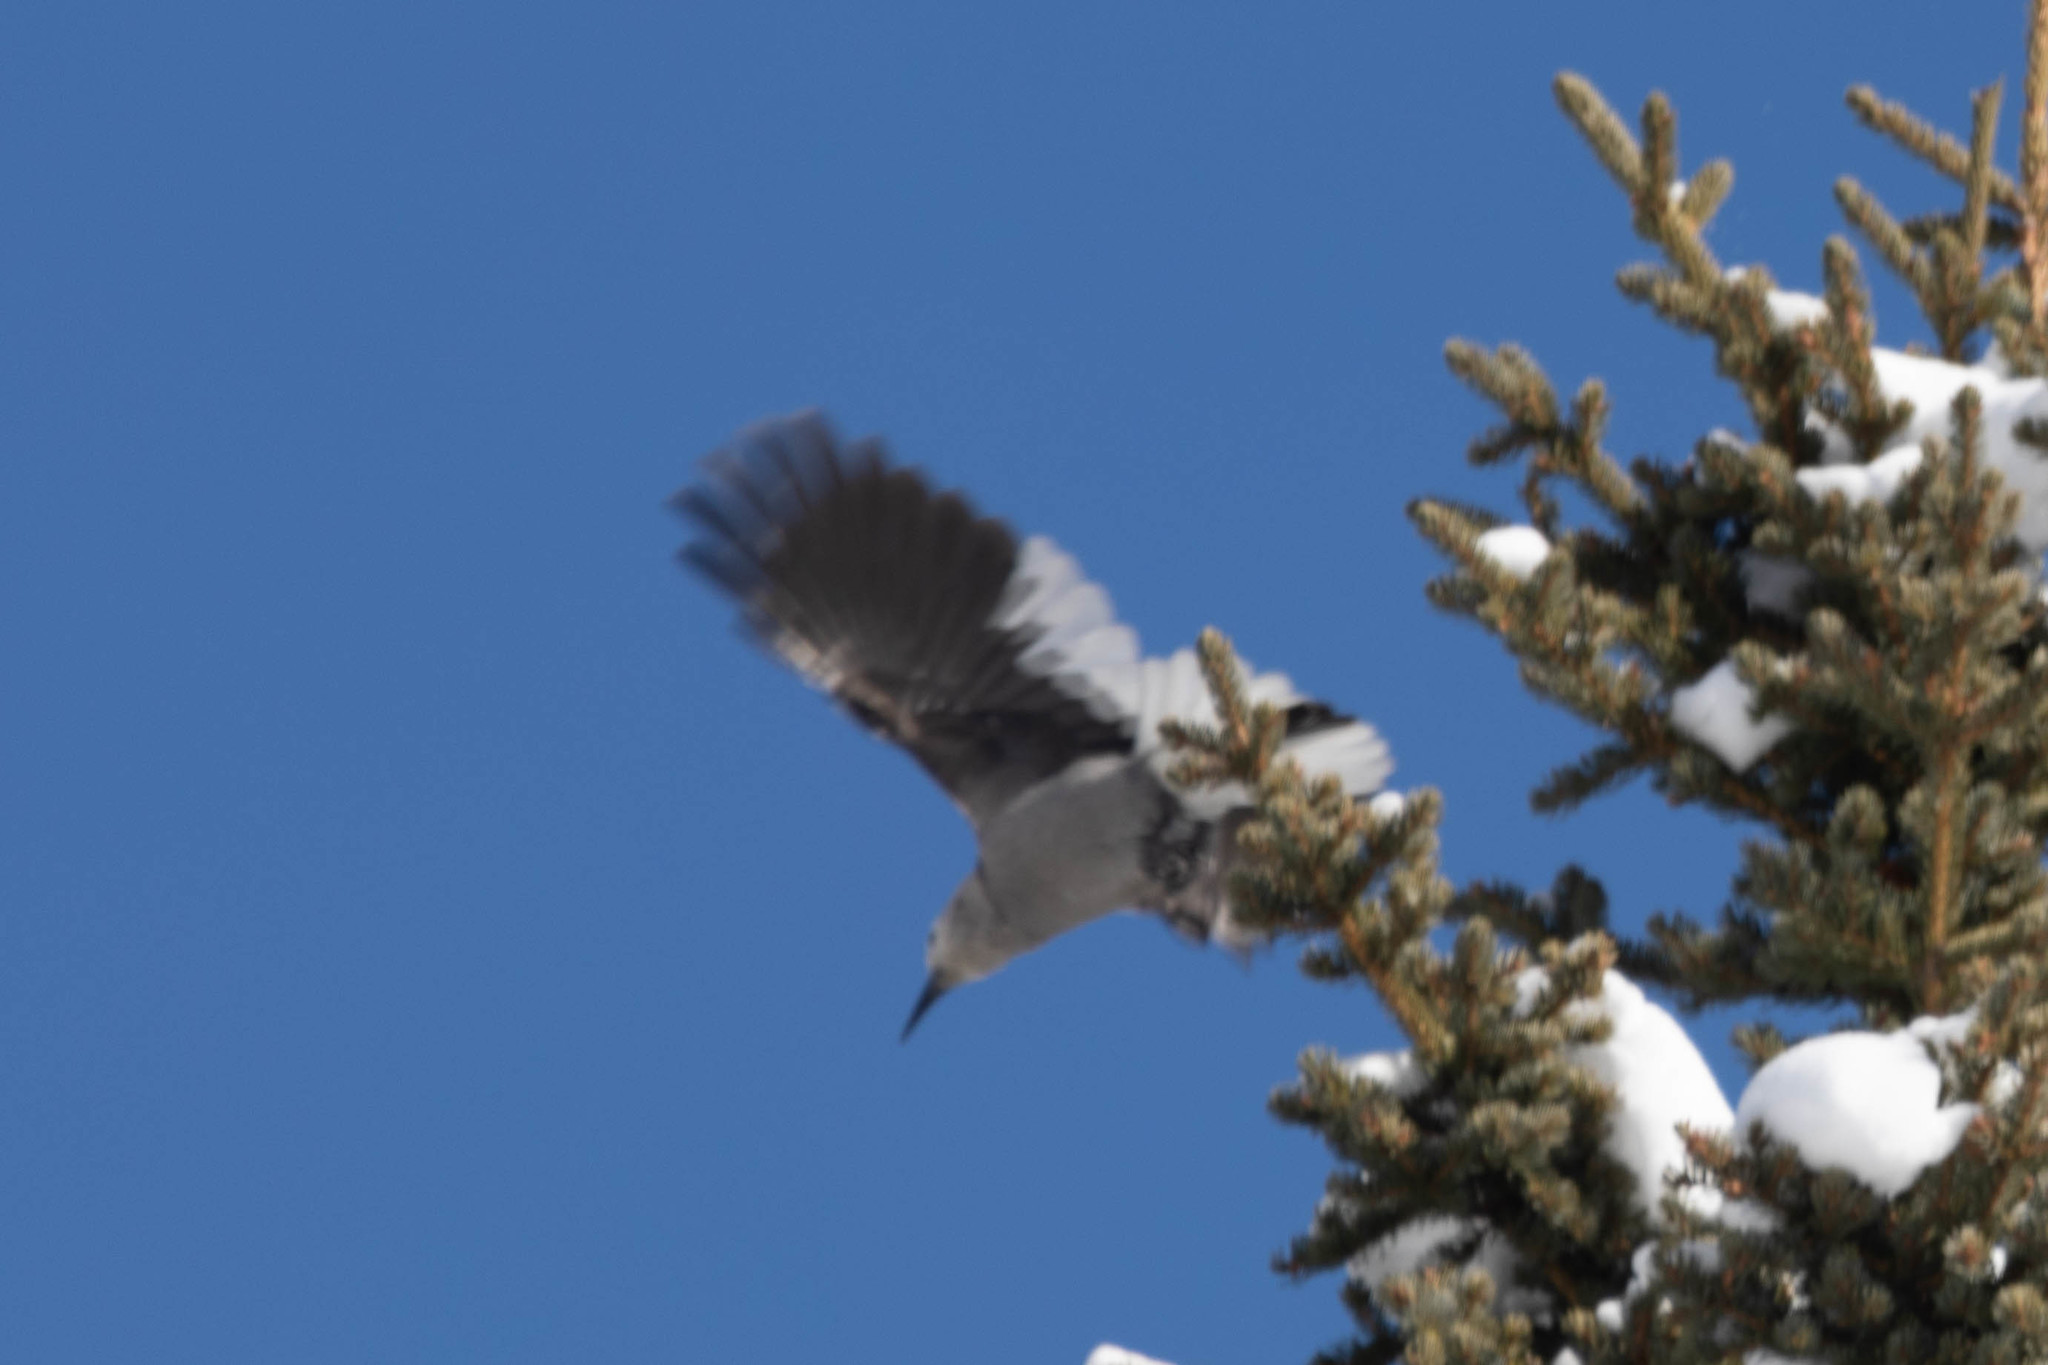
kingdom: Animalia
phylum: Chordata
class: Aves
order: Passeriformes
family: Corvidae
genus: Nucifraga
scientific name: Nucifraga columbiana
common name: Clark's nutcracker
